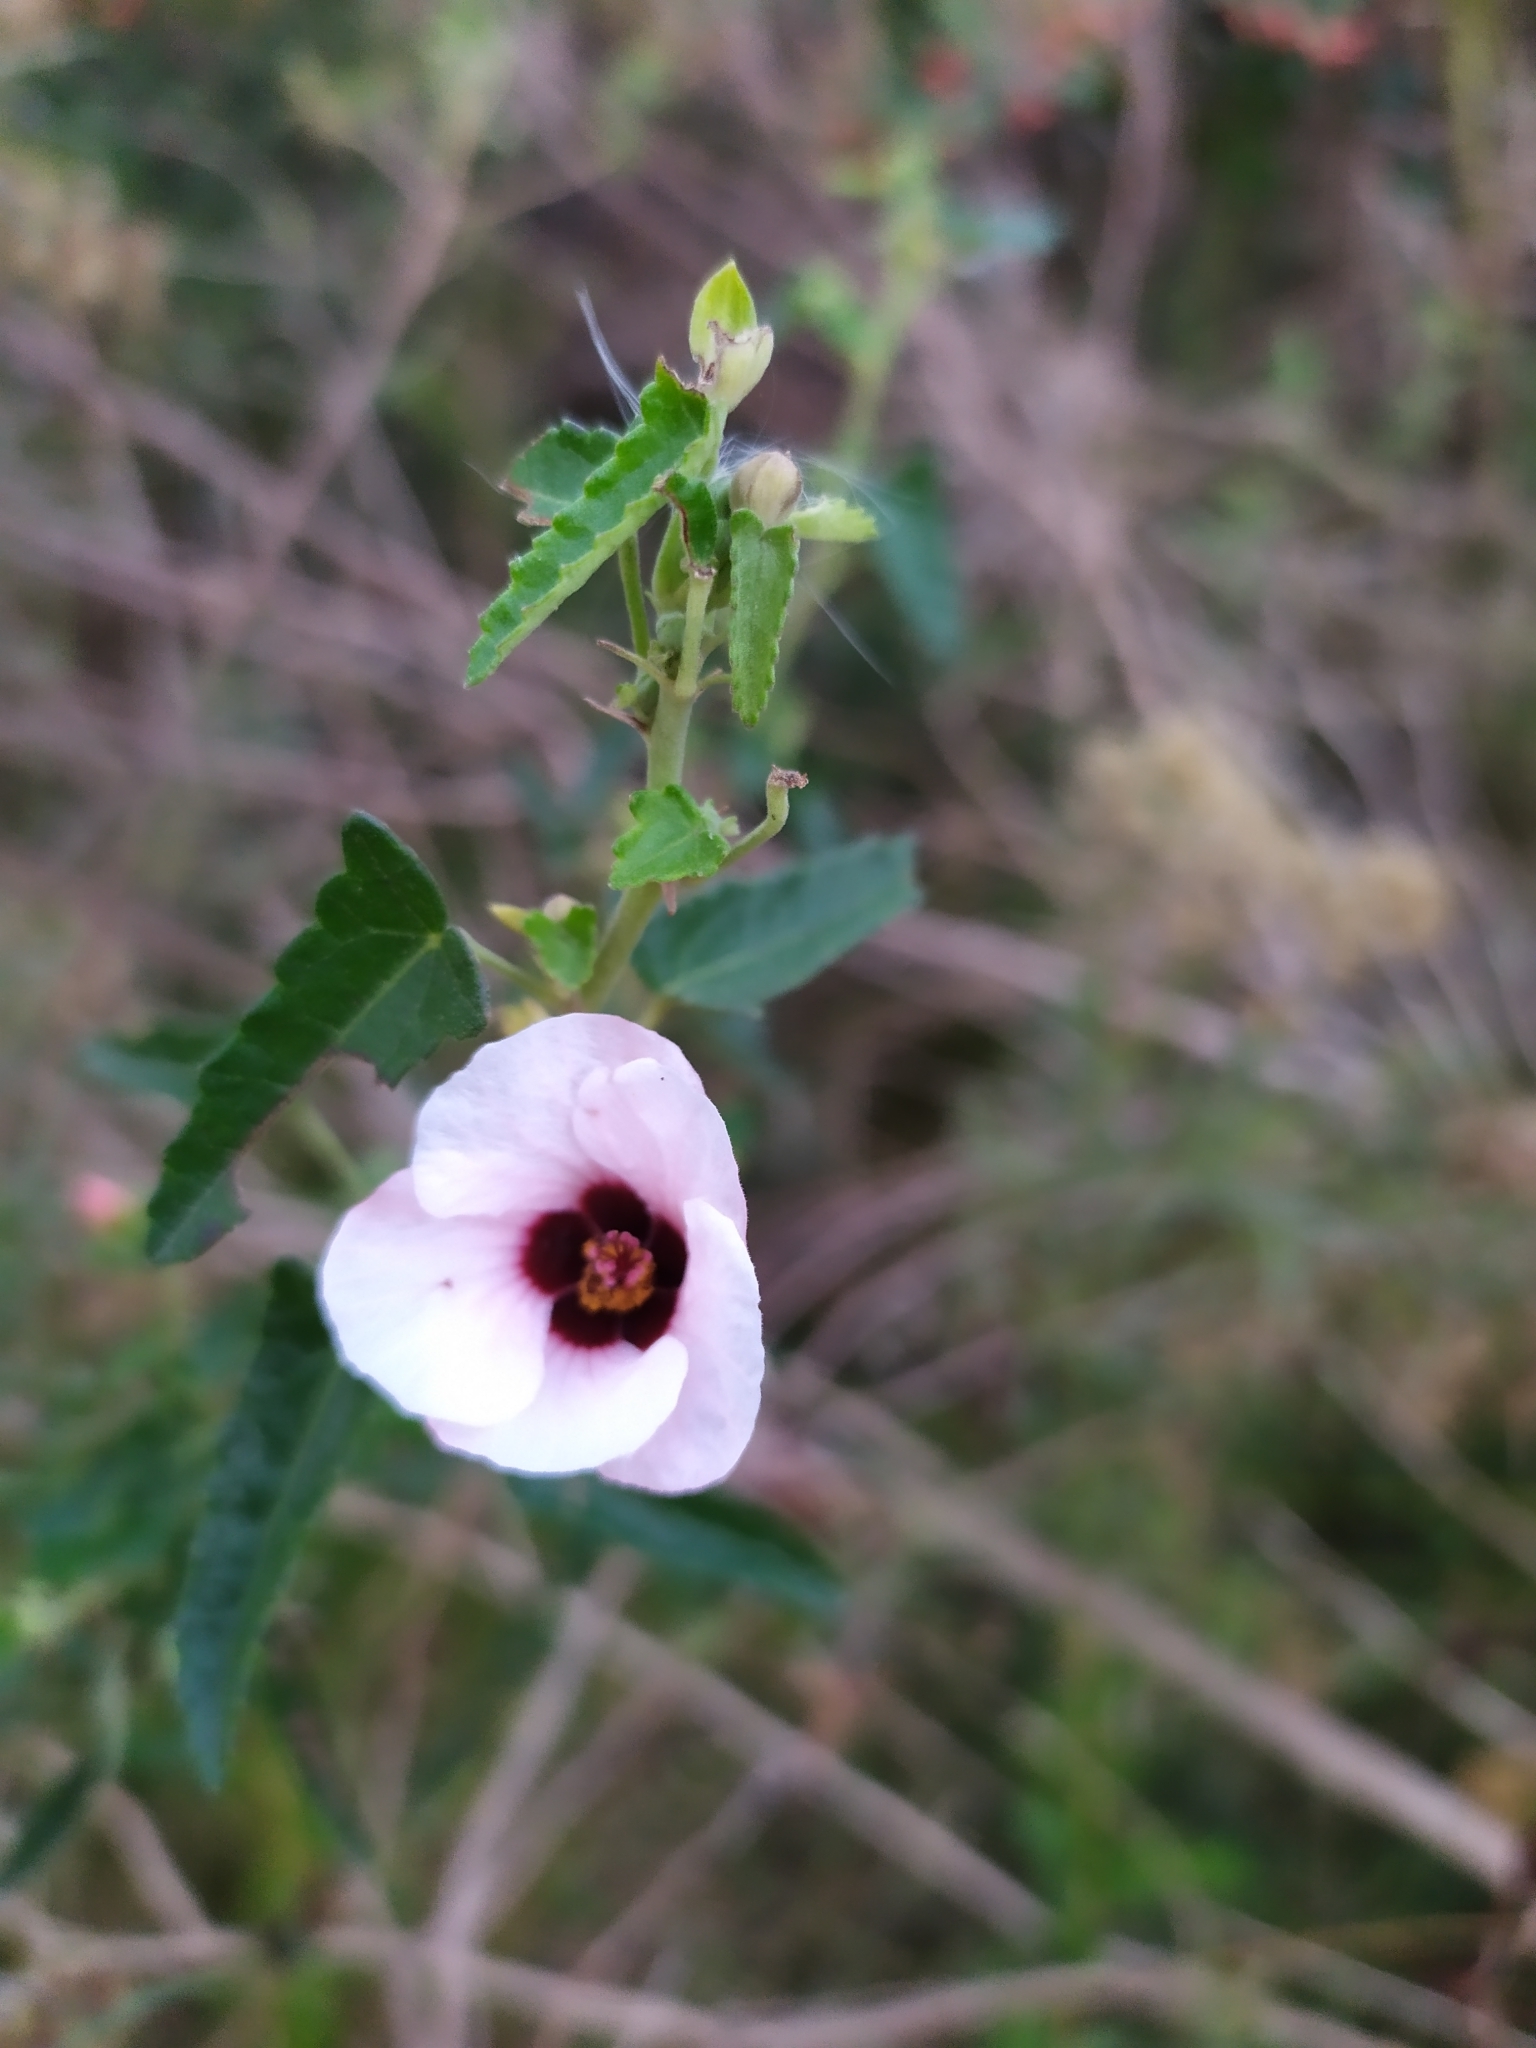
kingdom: Plantae
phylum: Tracheophyta
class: Magnoliopsida
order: Malvales
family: Malvaceae
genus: Pavonia
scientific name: Pavonia hastata
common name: Spearleaf swampmallow
